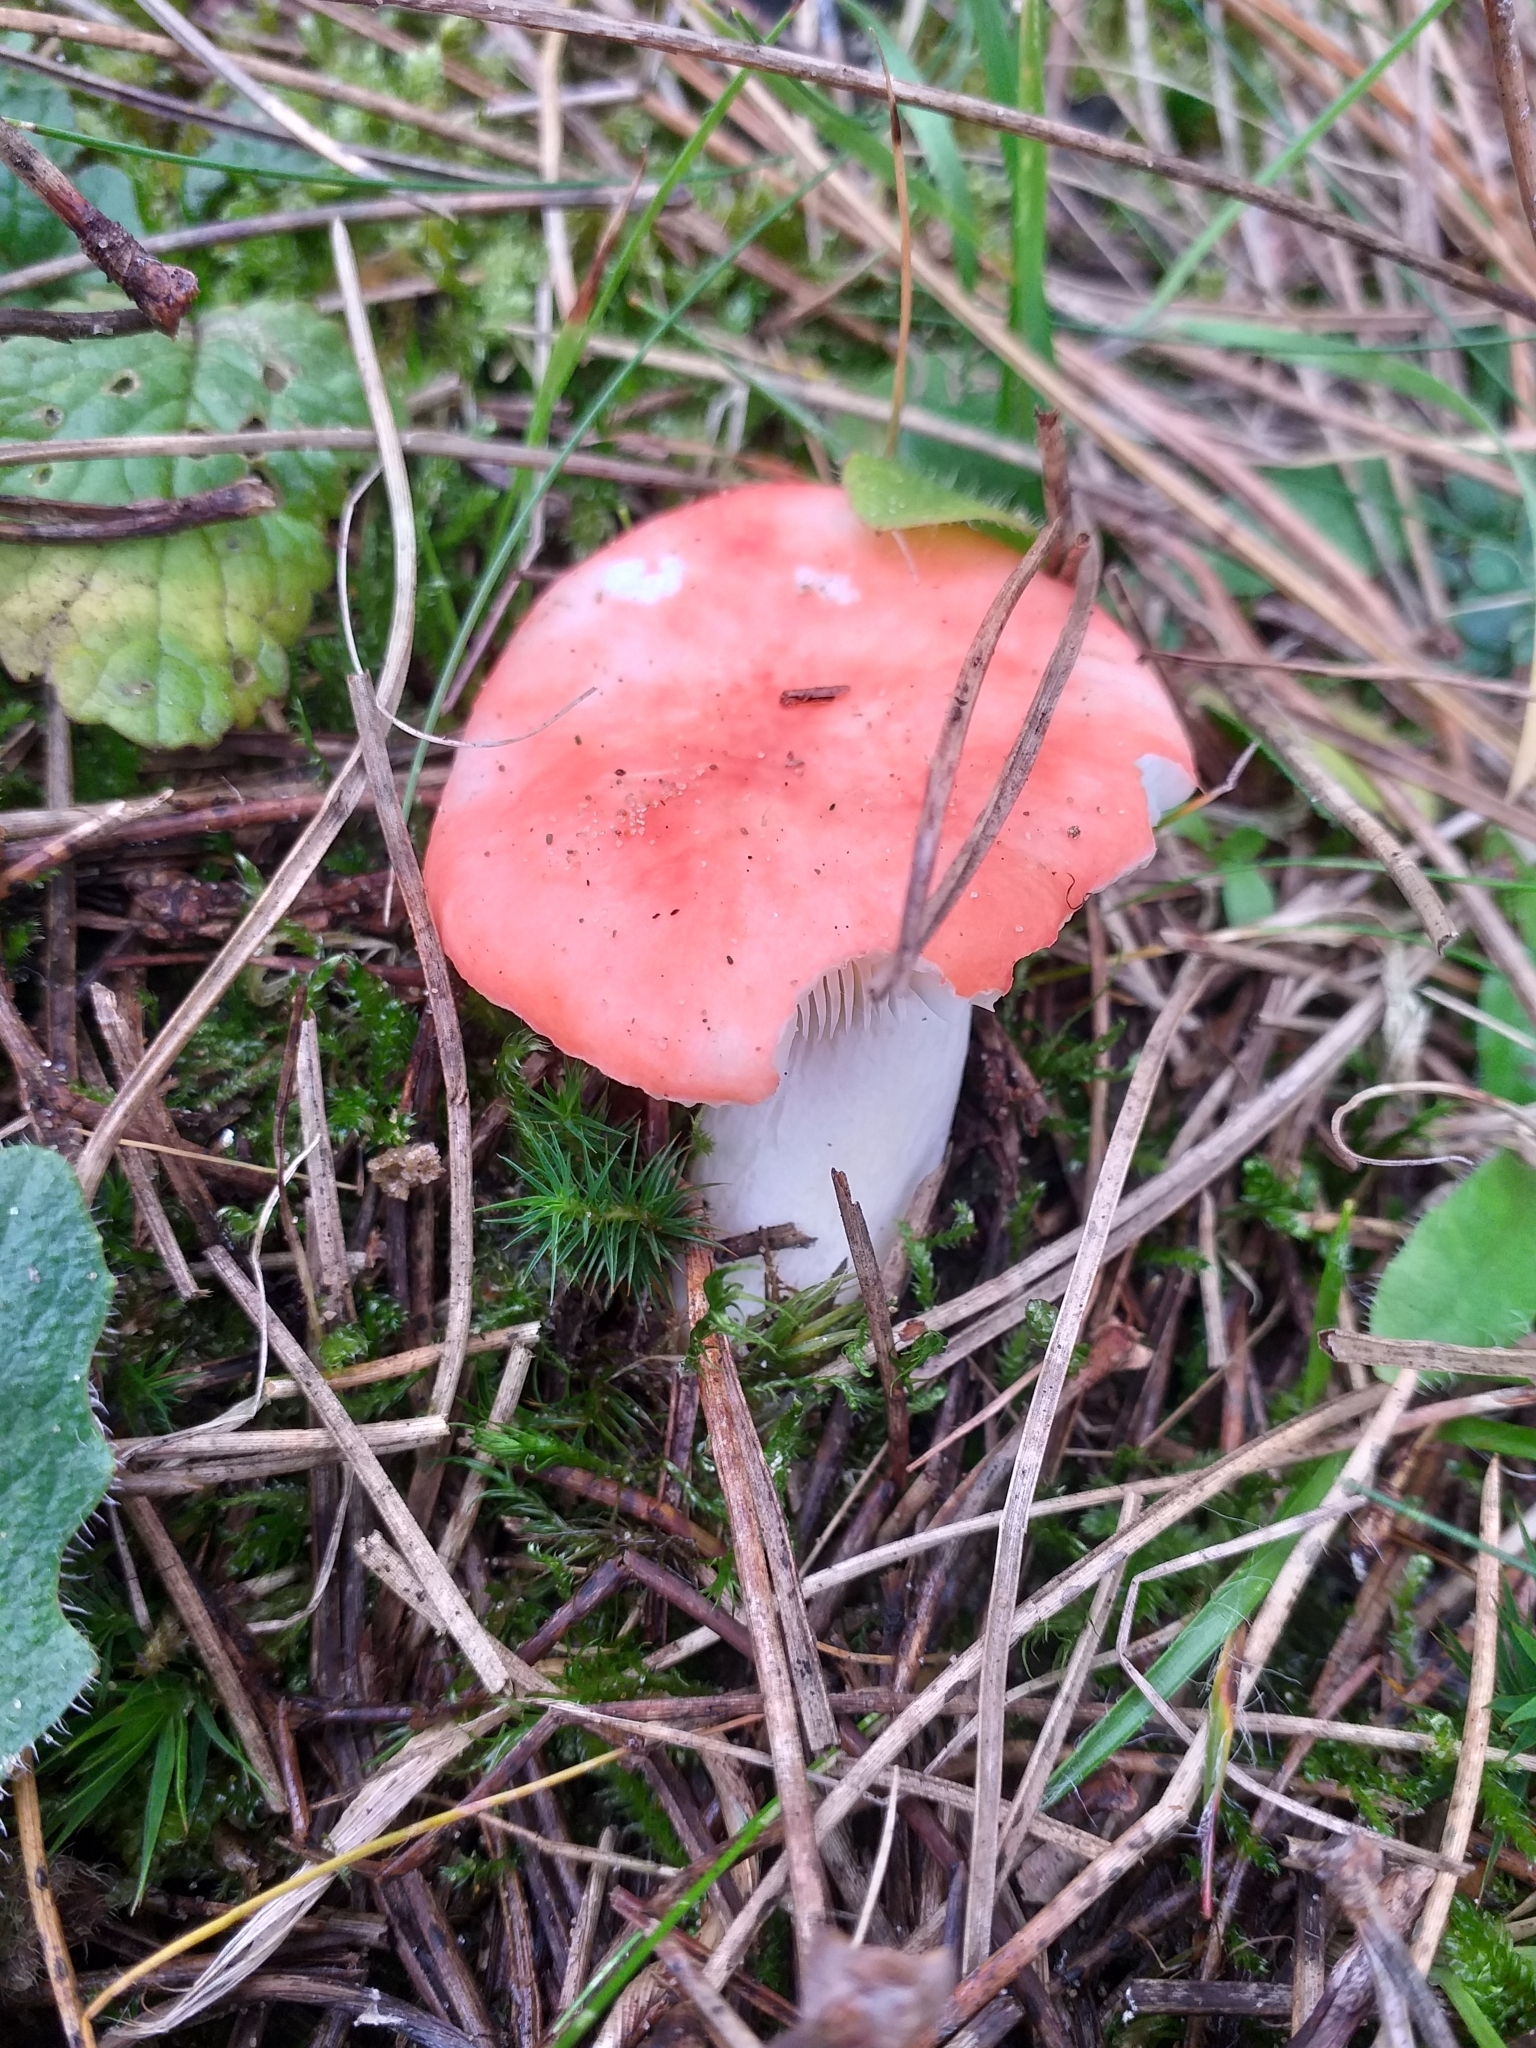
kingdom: Fungi
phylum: Basidiomycota
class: Agaricomycetes
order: Russulales
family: Russulaceae
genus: Russula
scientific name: Russula
